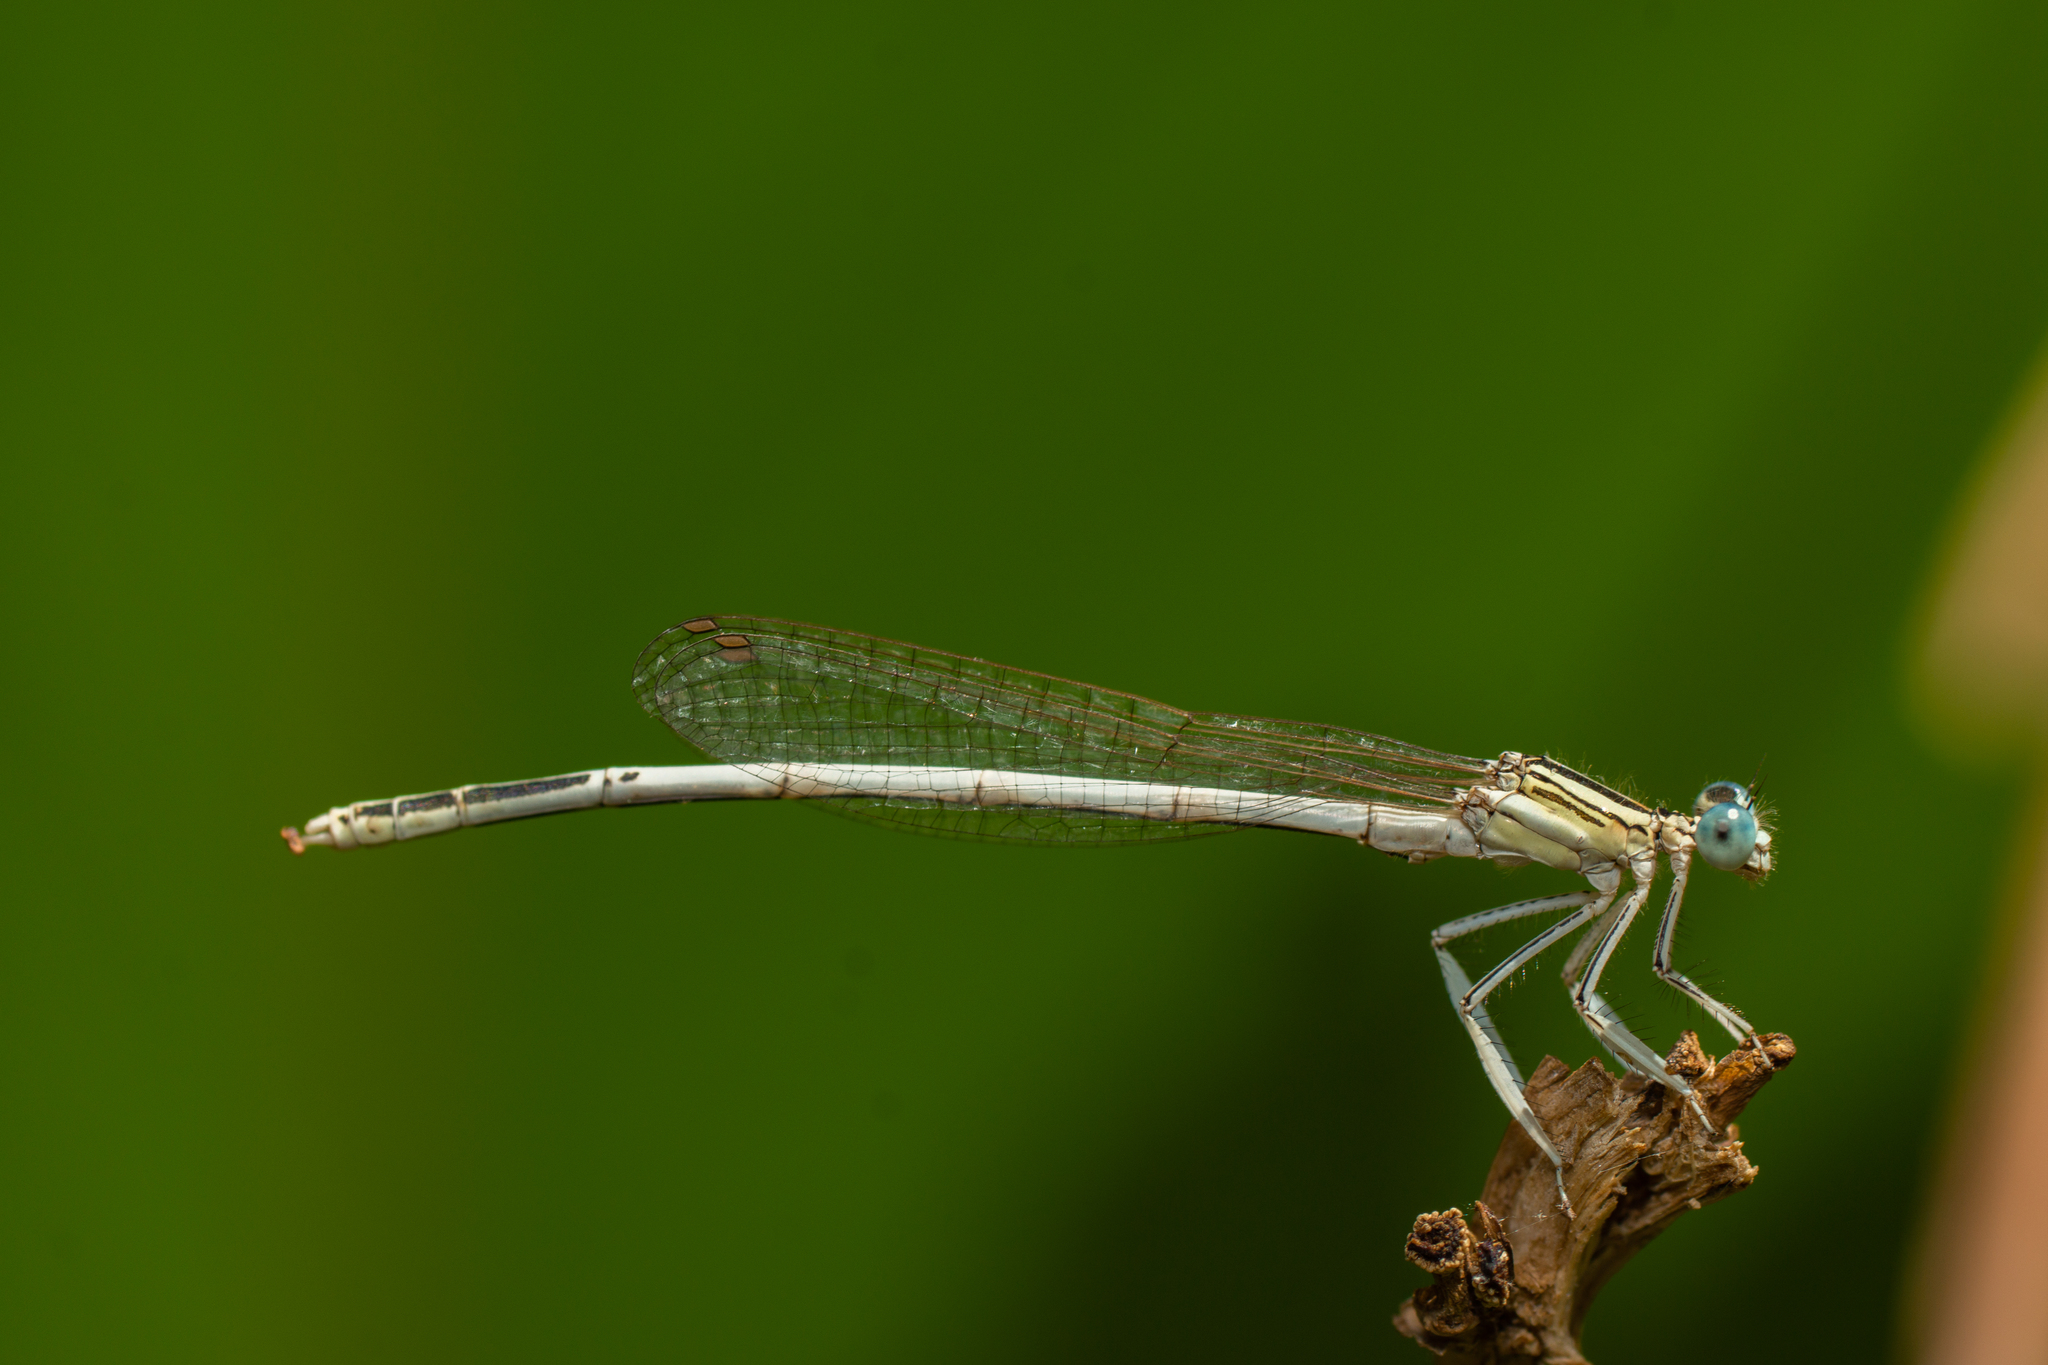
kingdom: Animalia
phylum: Arthropoda
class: Insecta
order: Odonata
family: Platycnemididae
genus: Platycnemis
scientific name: Platycnemis latipes
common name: White featherleg
